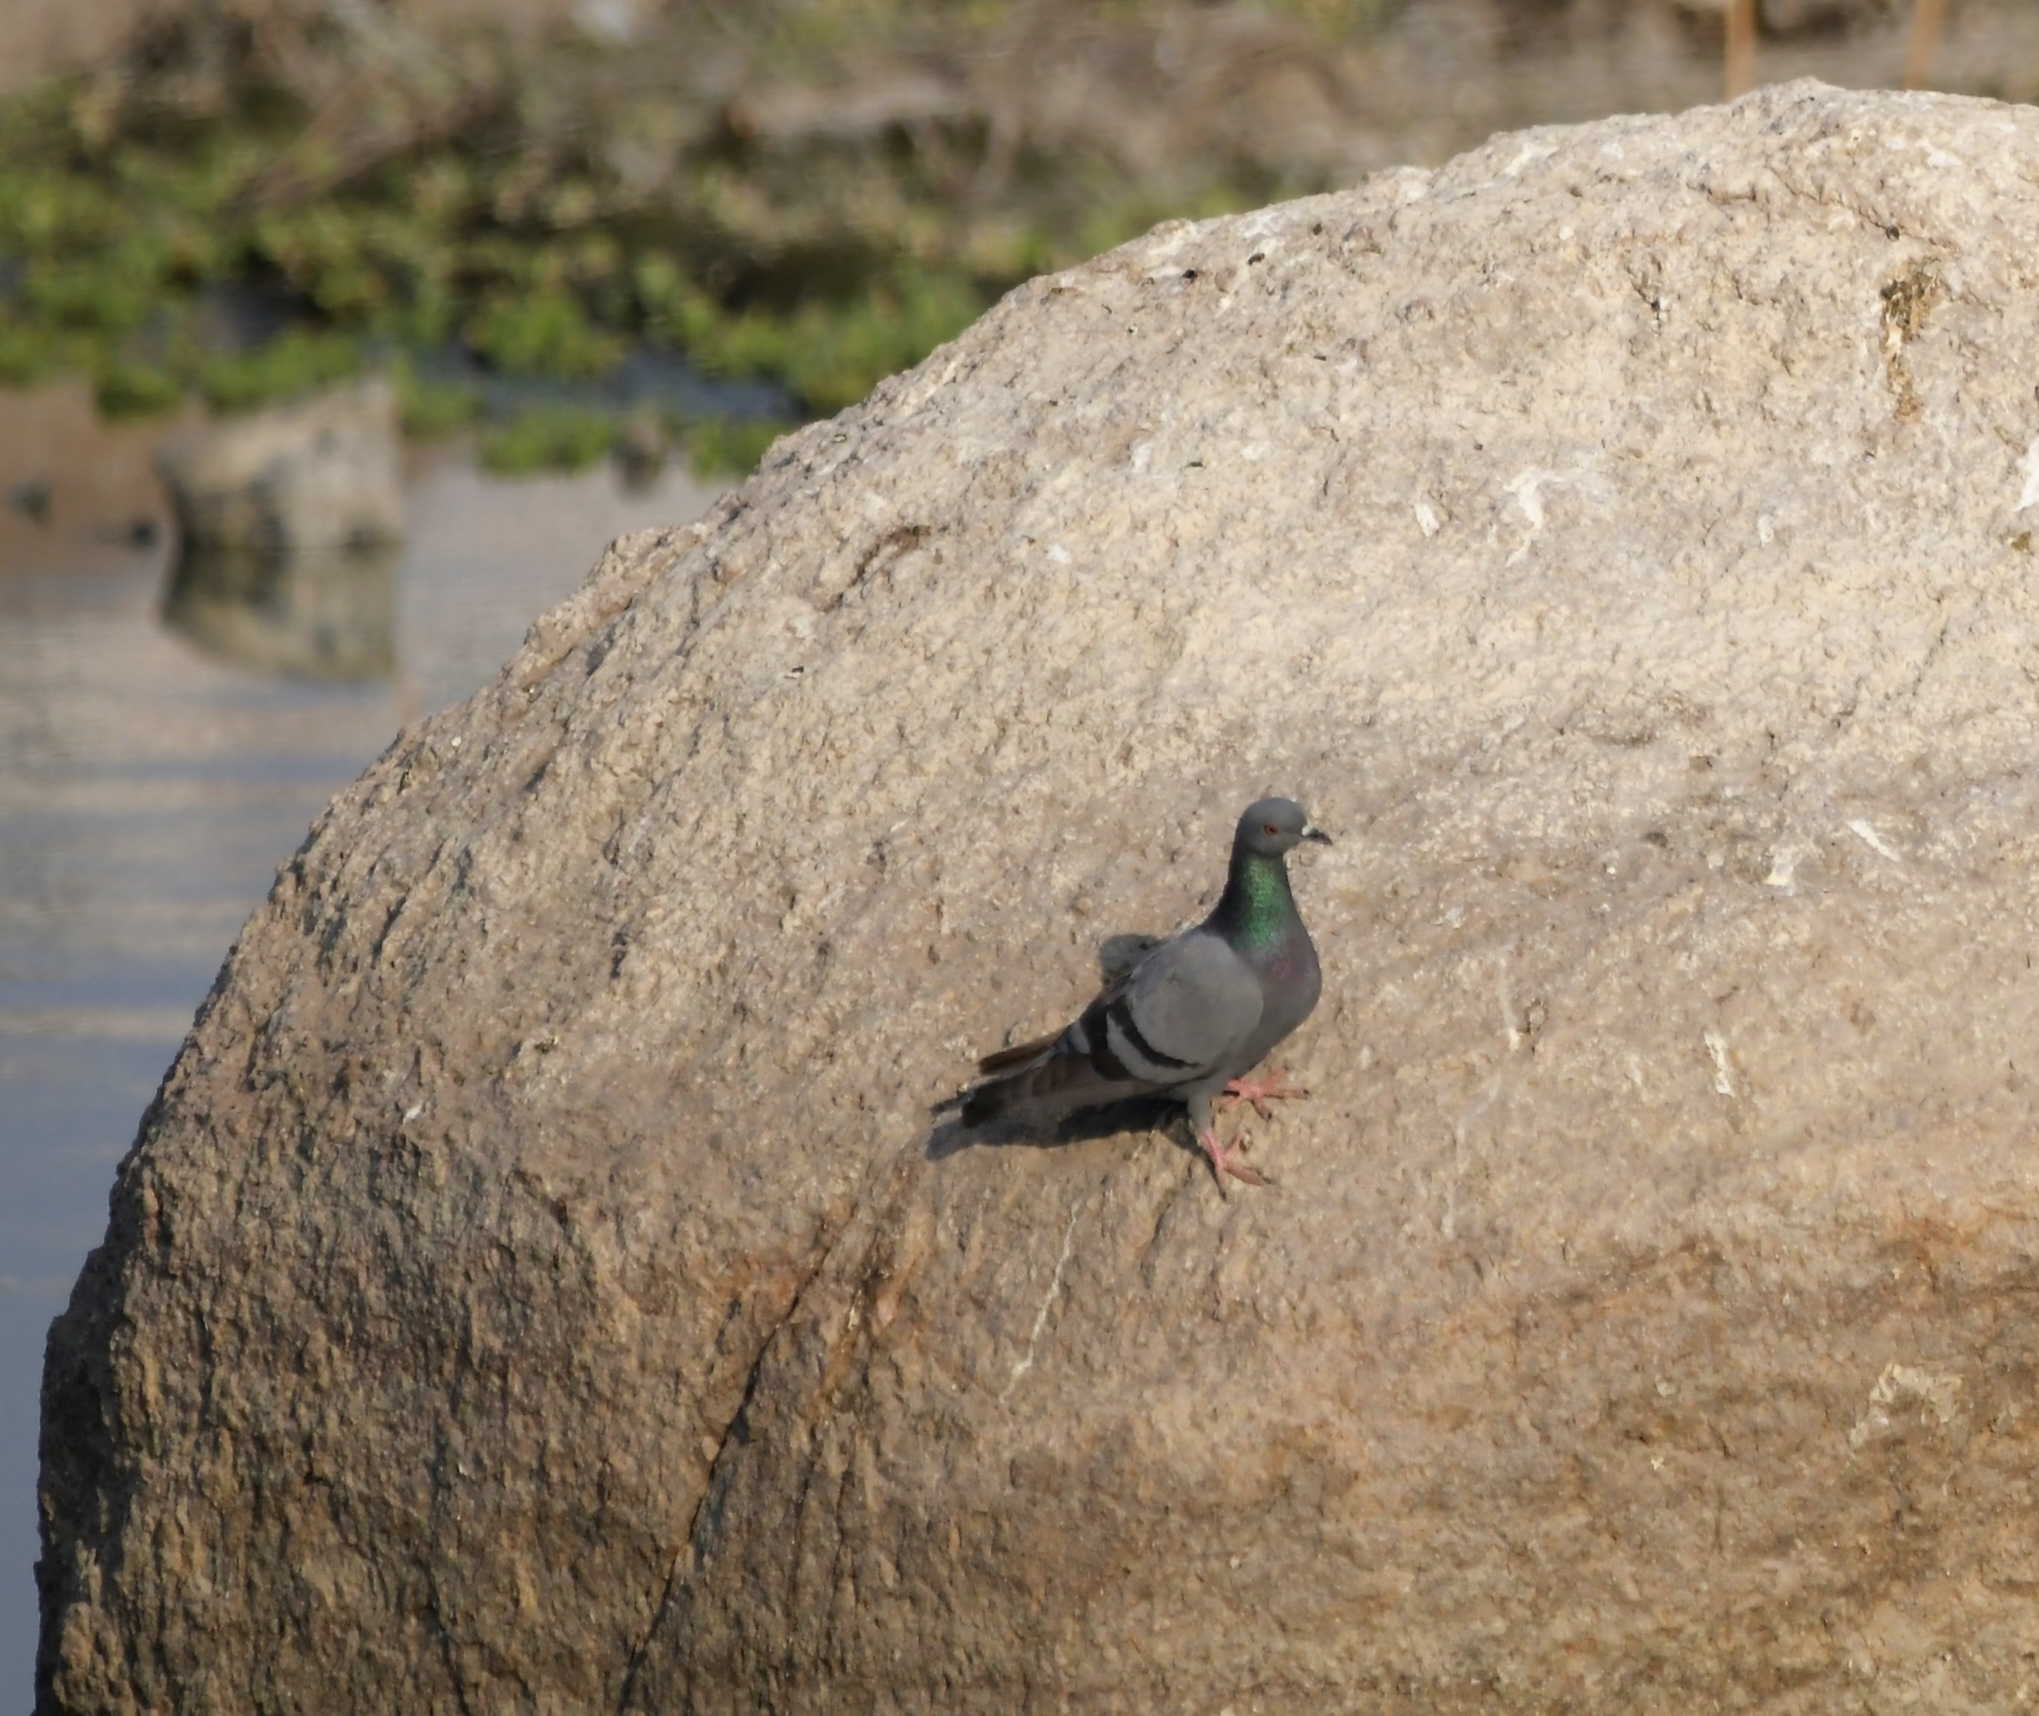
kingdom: Animalia
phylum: Chordata
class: Aves
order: Columbiformes
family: Columbidae
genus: Columba
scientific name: Columba livia
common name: Rock pigeon
